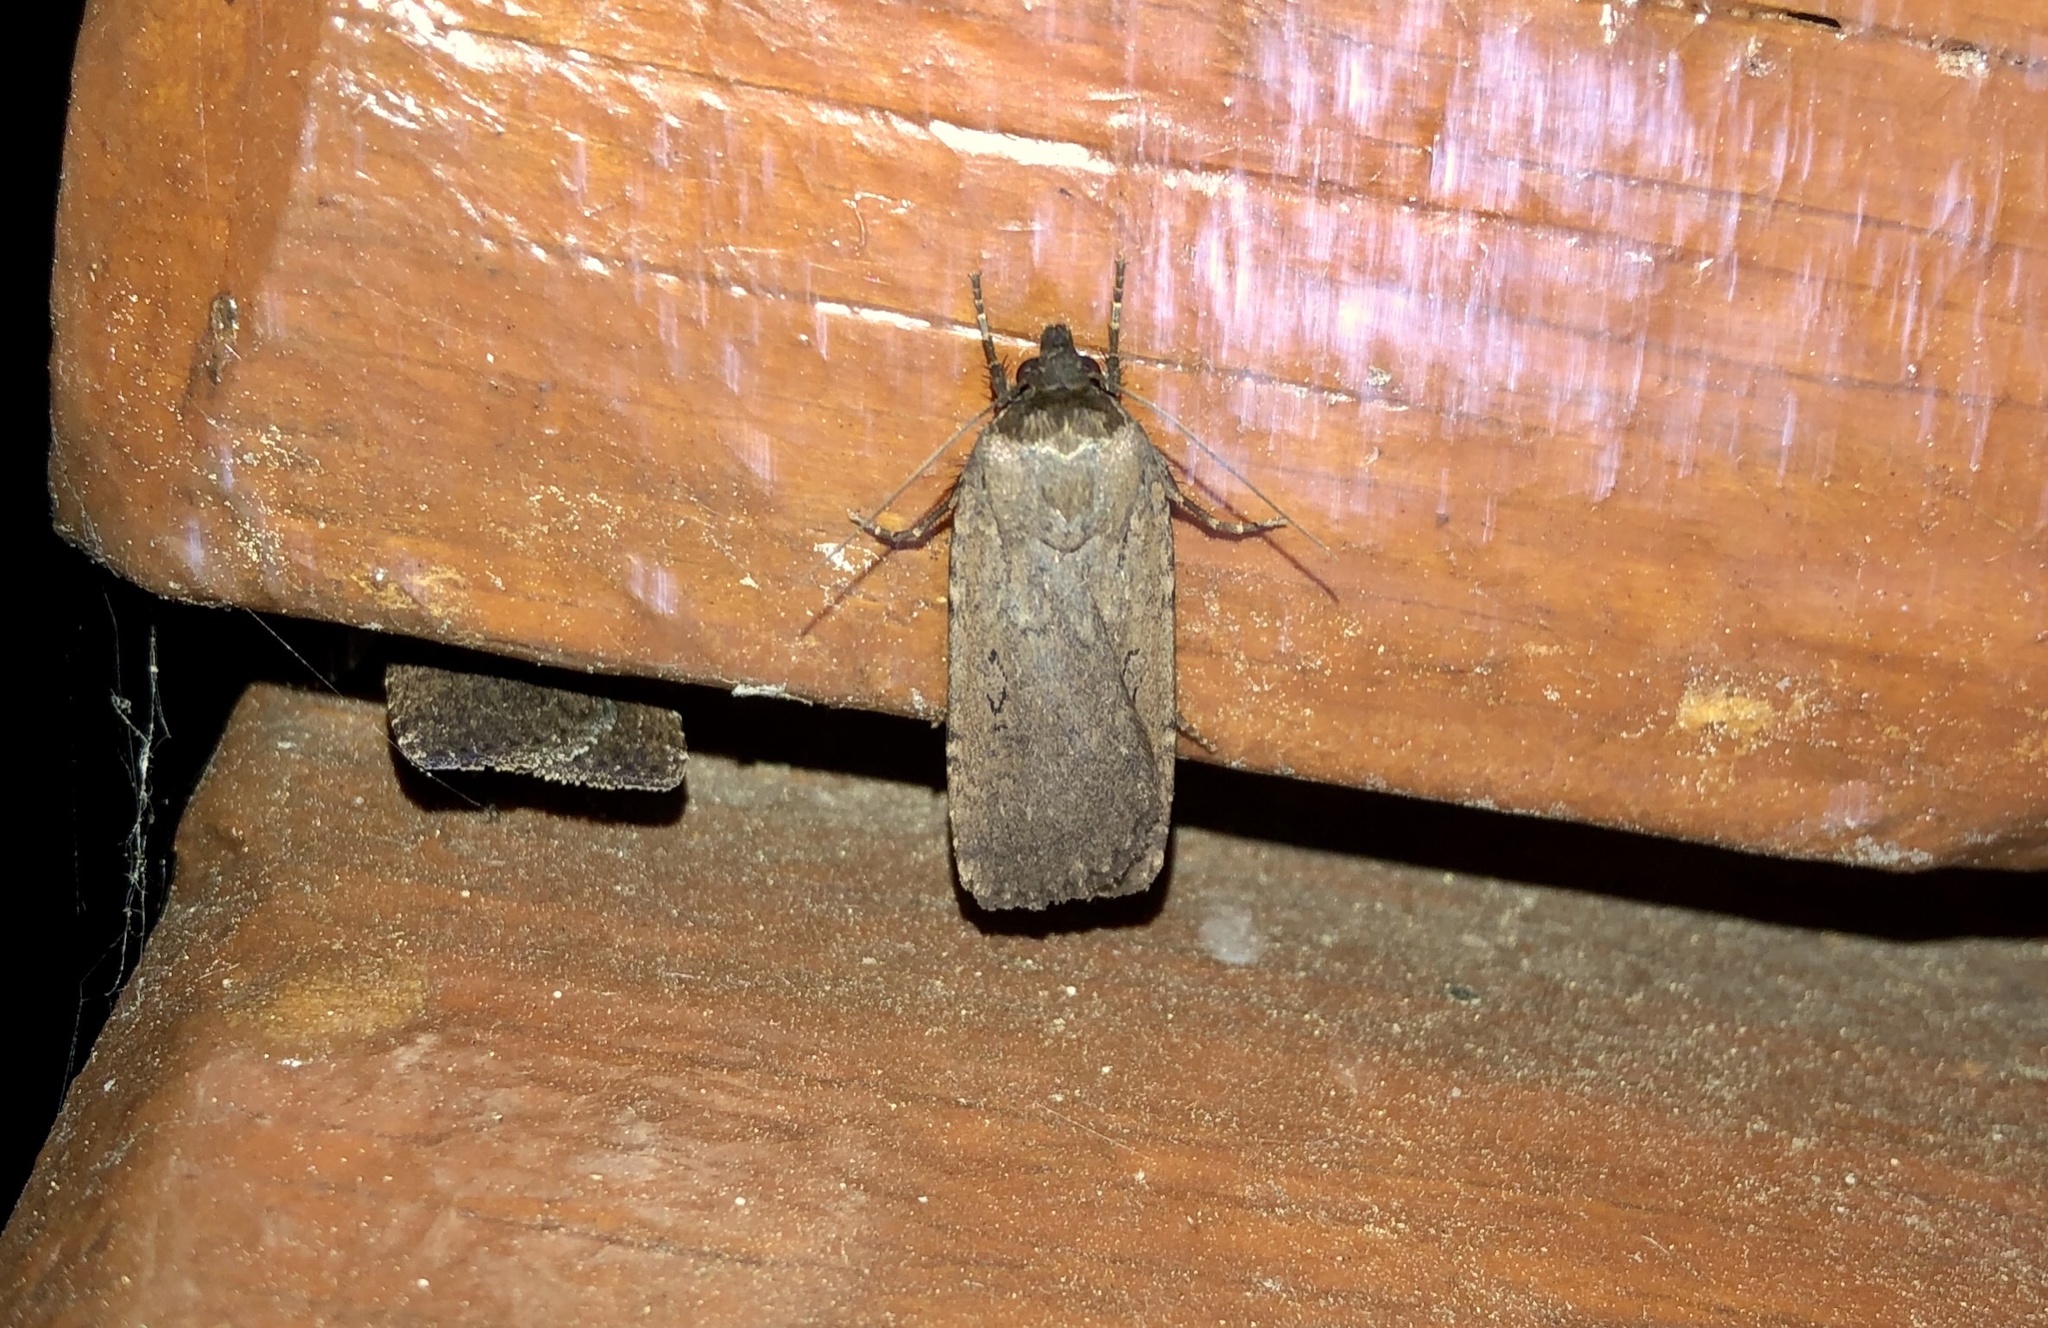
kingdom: Animalia
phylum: Arthropoda
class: Insecta
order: Lepidoptera
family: Noctuidae
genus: Spaelotis
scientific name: Spaelotis clandestina
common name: Clandestine dart
